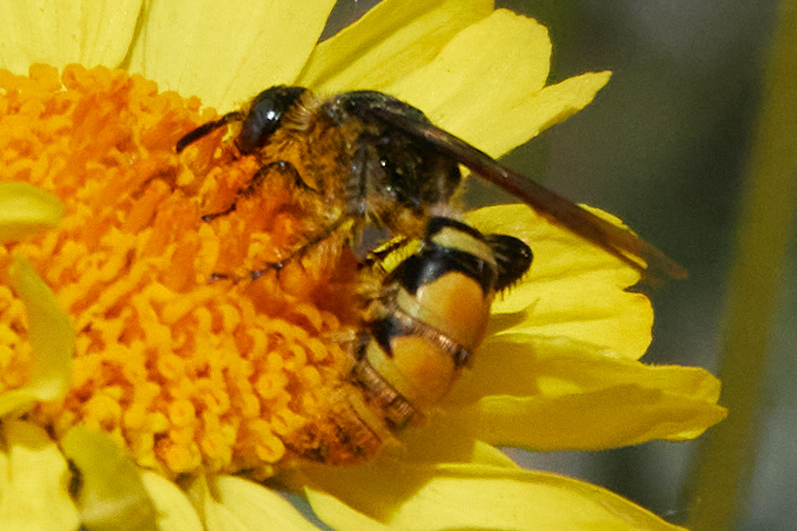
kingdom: Animalia
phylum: Arthropoda
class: Insecta
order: Hymenoptera
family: Scoliidae
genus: Dielis
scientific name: Dielis tolteca
